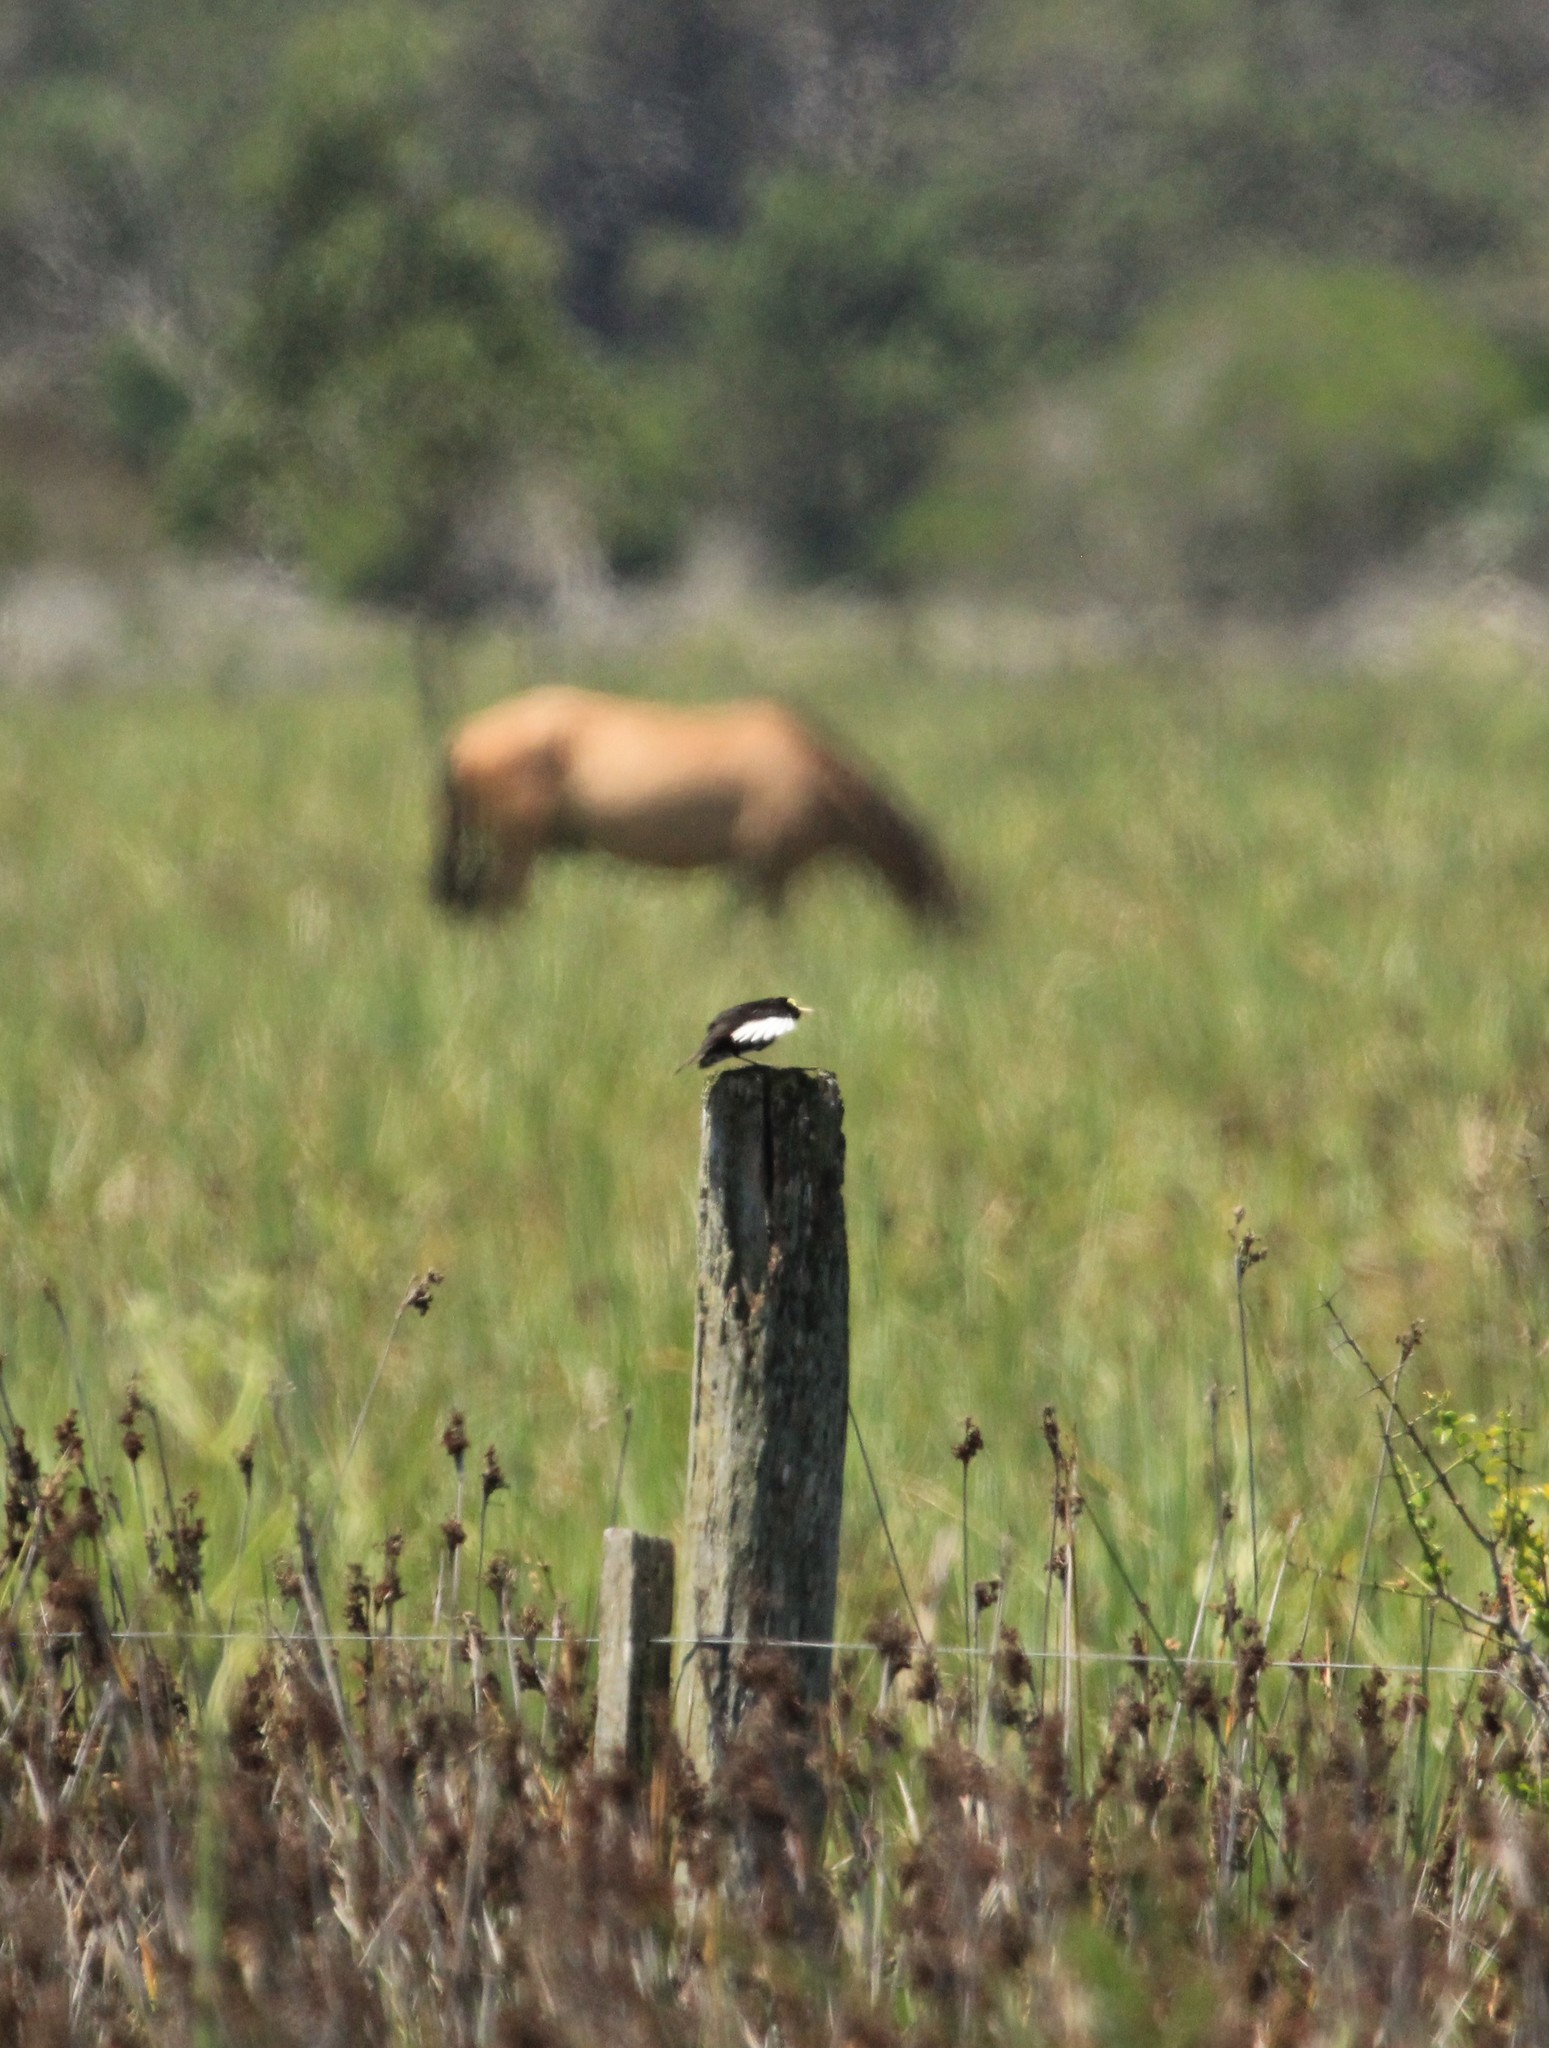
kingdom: Animalia
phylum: Chordata
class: Aves
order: Passeriformes
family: Tyrannidae
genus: Hymenops
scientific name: Hymenops perspicillatus
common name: Spectacled tyrant
